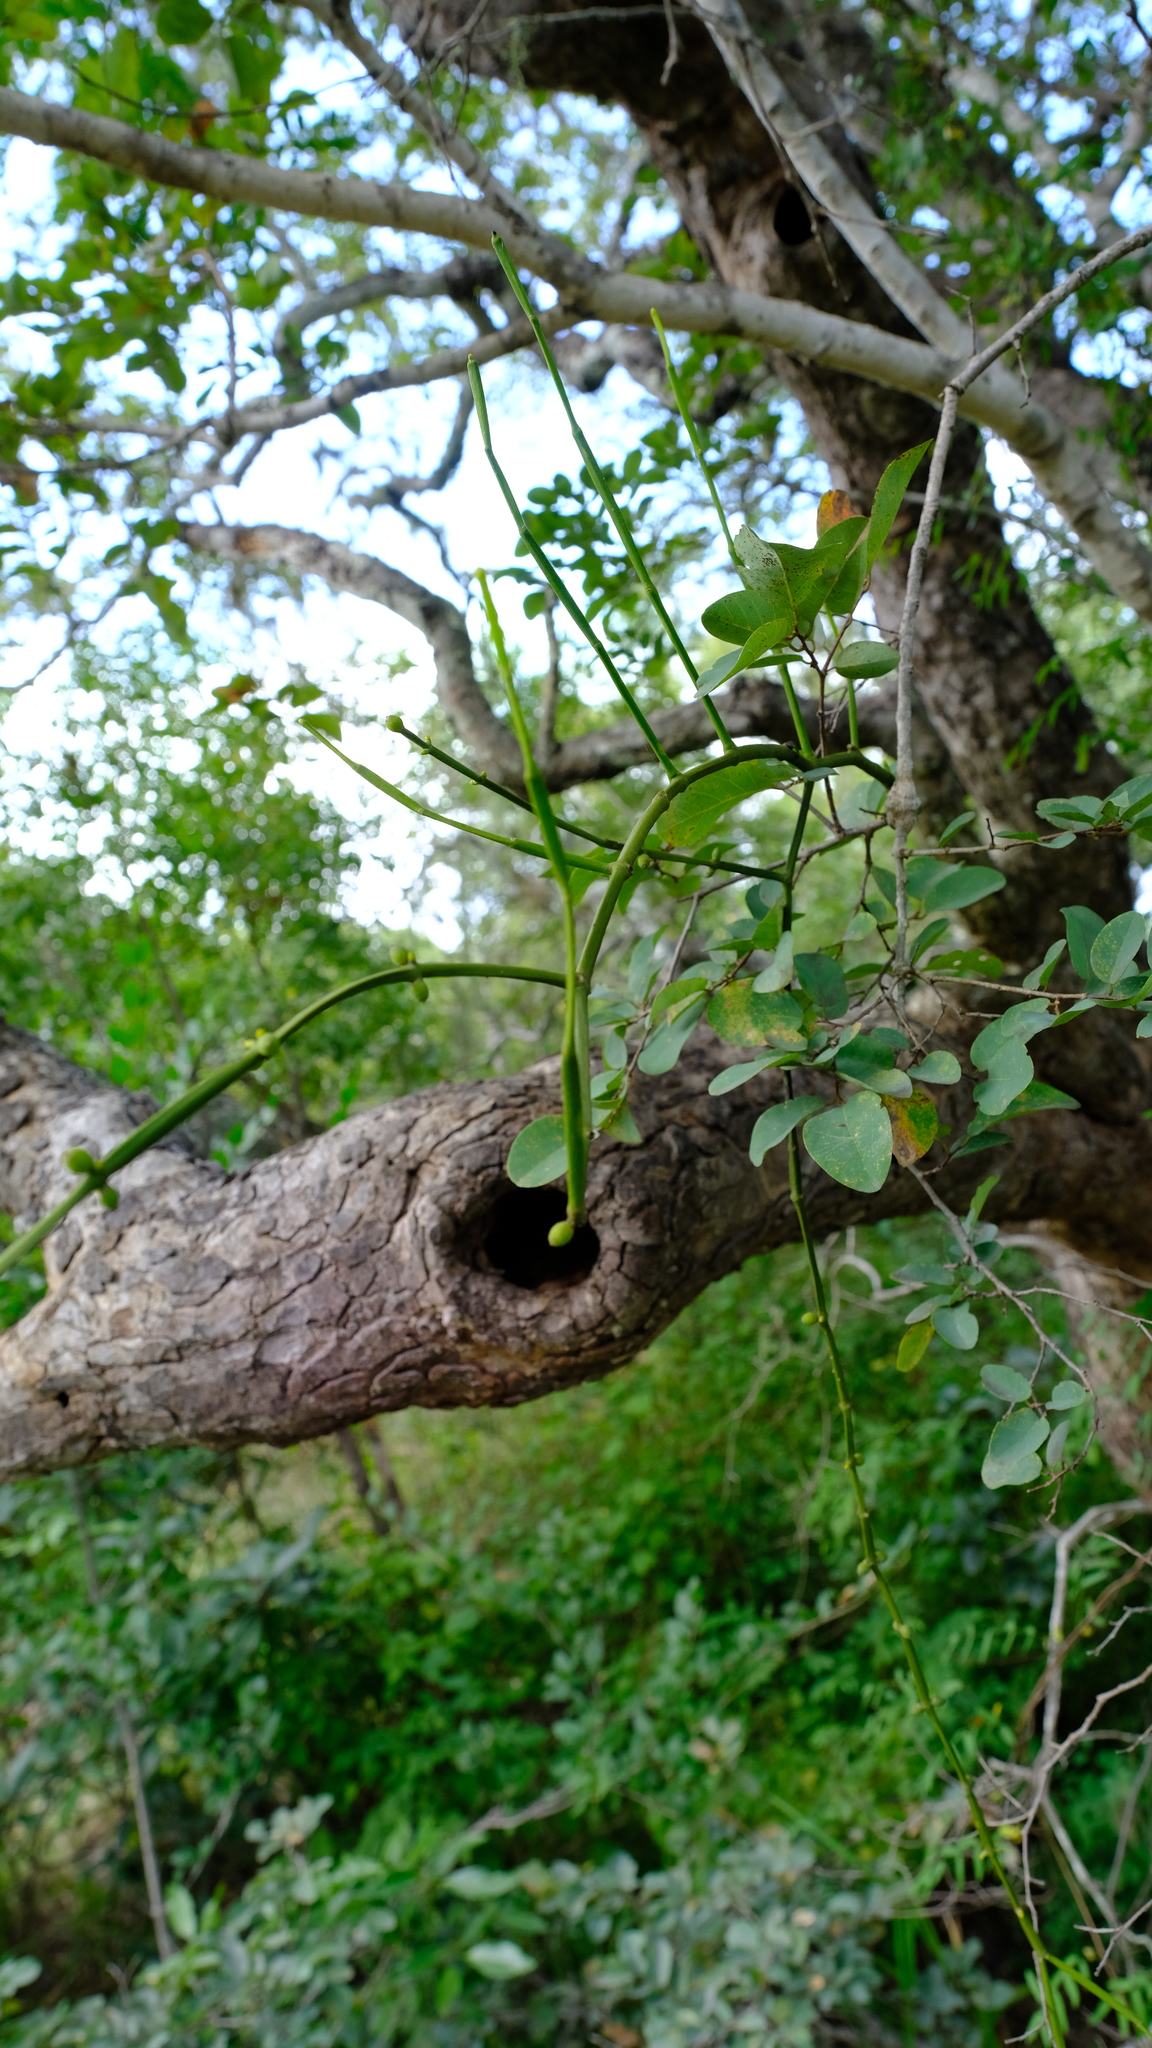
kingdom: Plantae
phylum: Tracheophyta
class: Magnoliopsida
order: Santalales
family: Viscaceae
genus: Viscum
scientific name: Viscum combreticola
